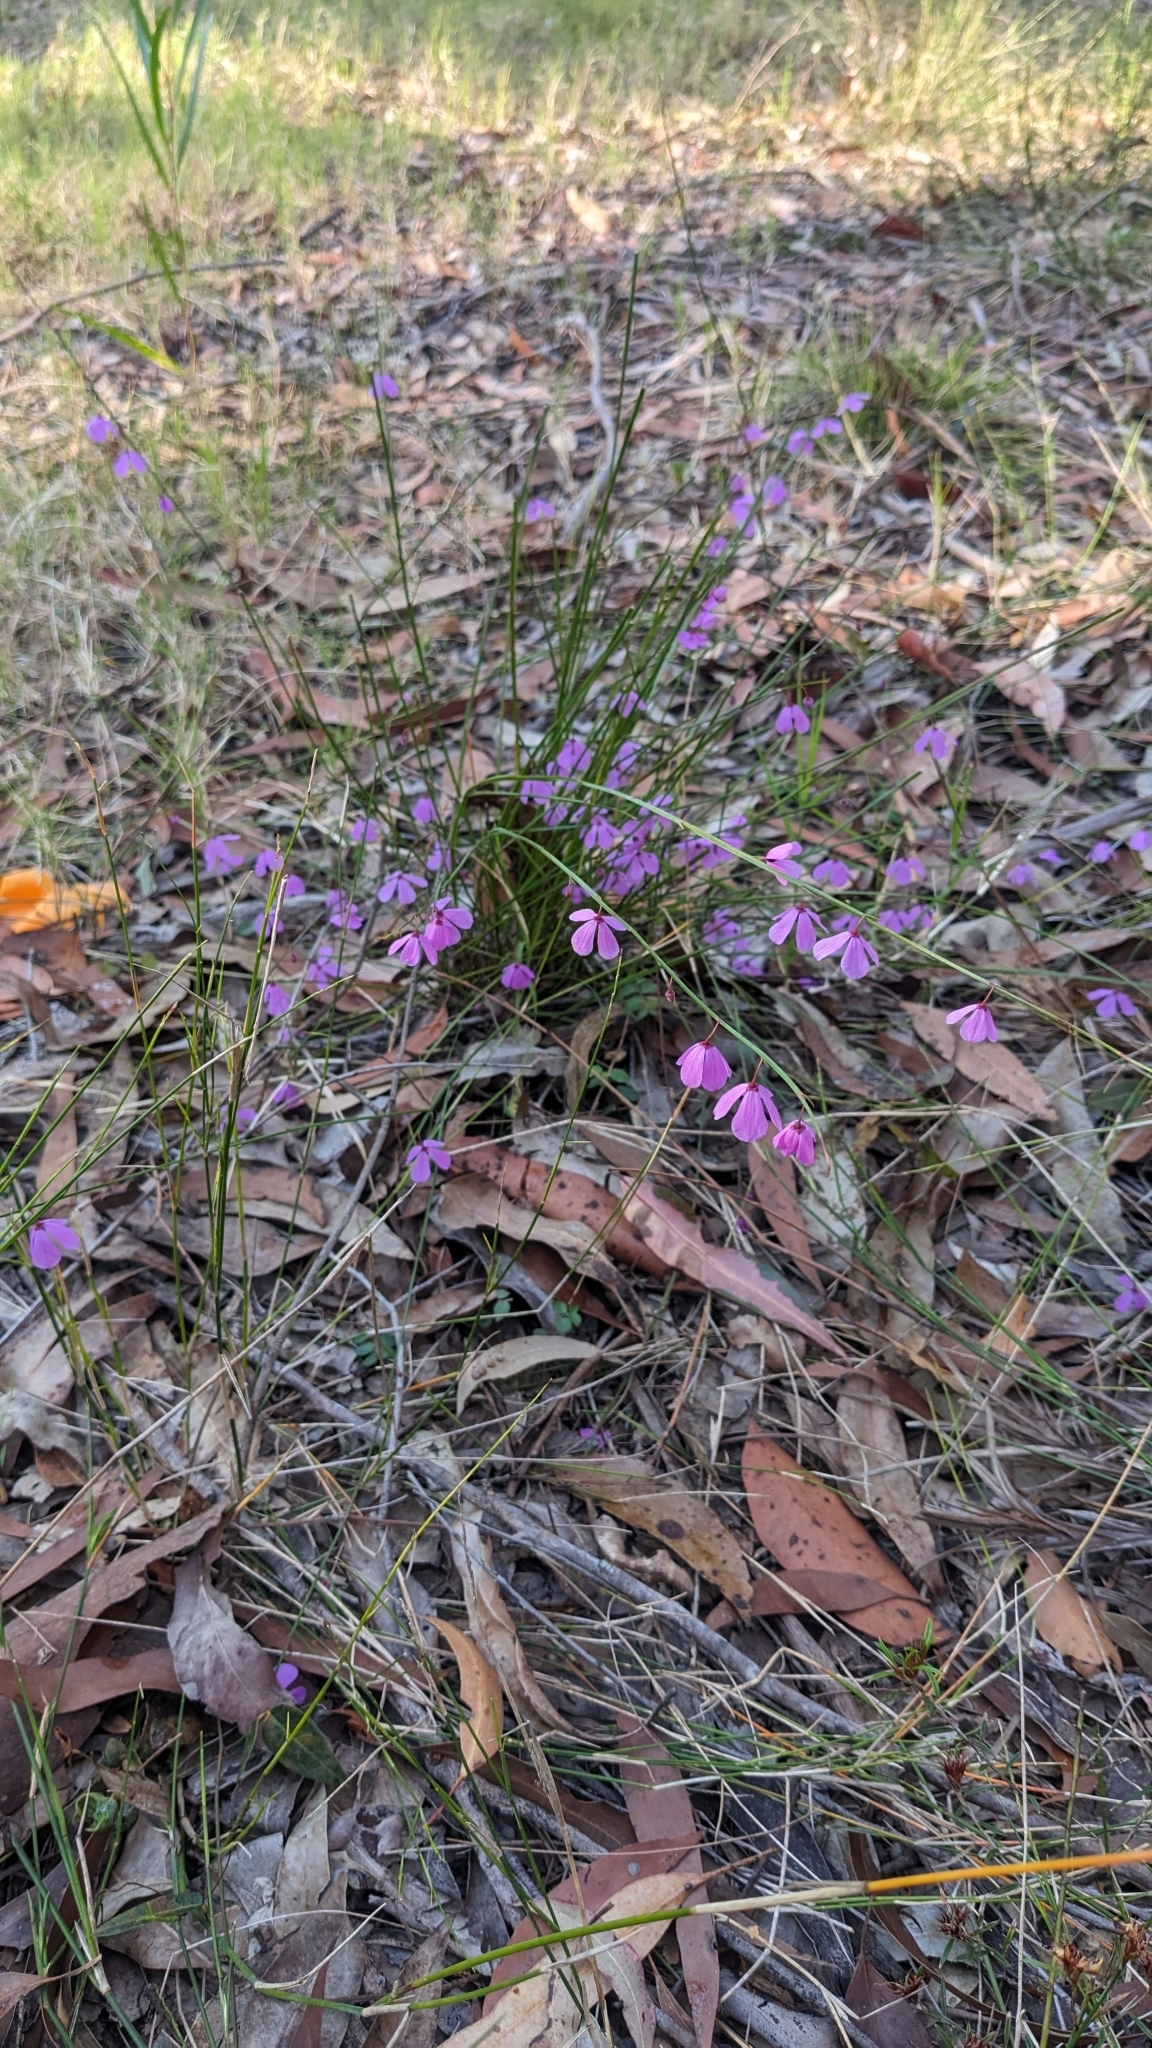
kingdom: Plantae
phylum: Tracheophyta
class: Magnoliopsida
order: Oxalidales
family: Elaeocarpaceae
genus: Tetratheca
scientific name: Tetratheca juncea
